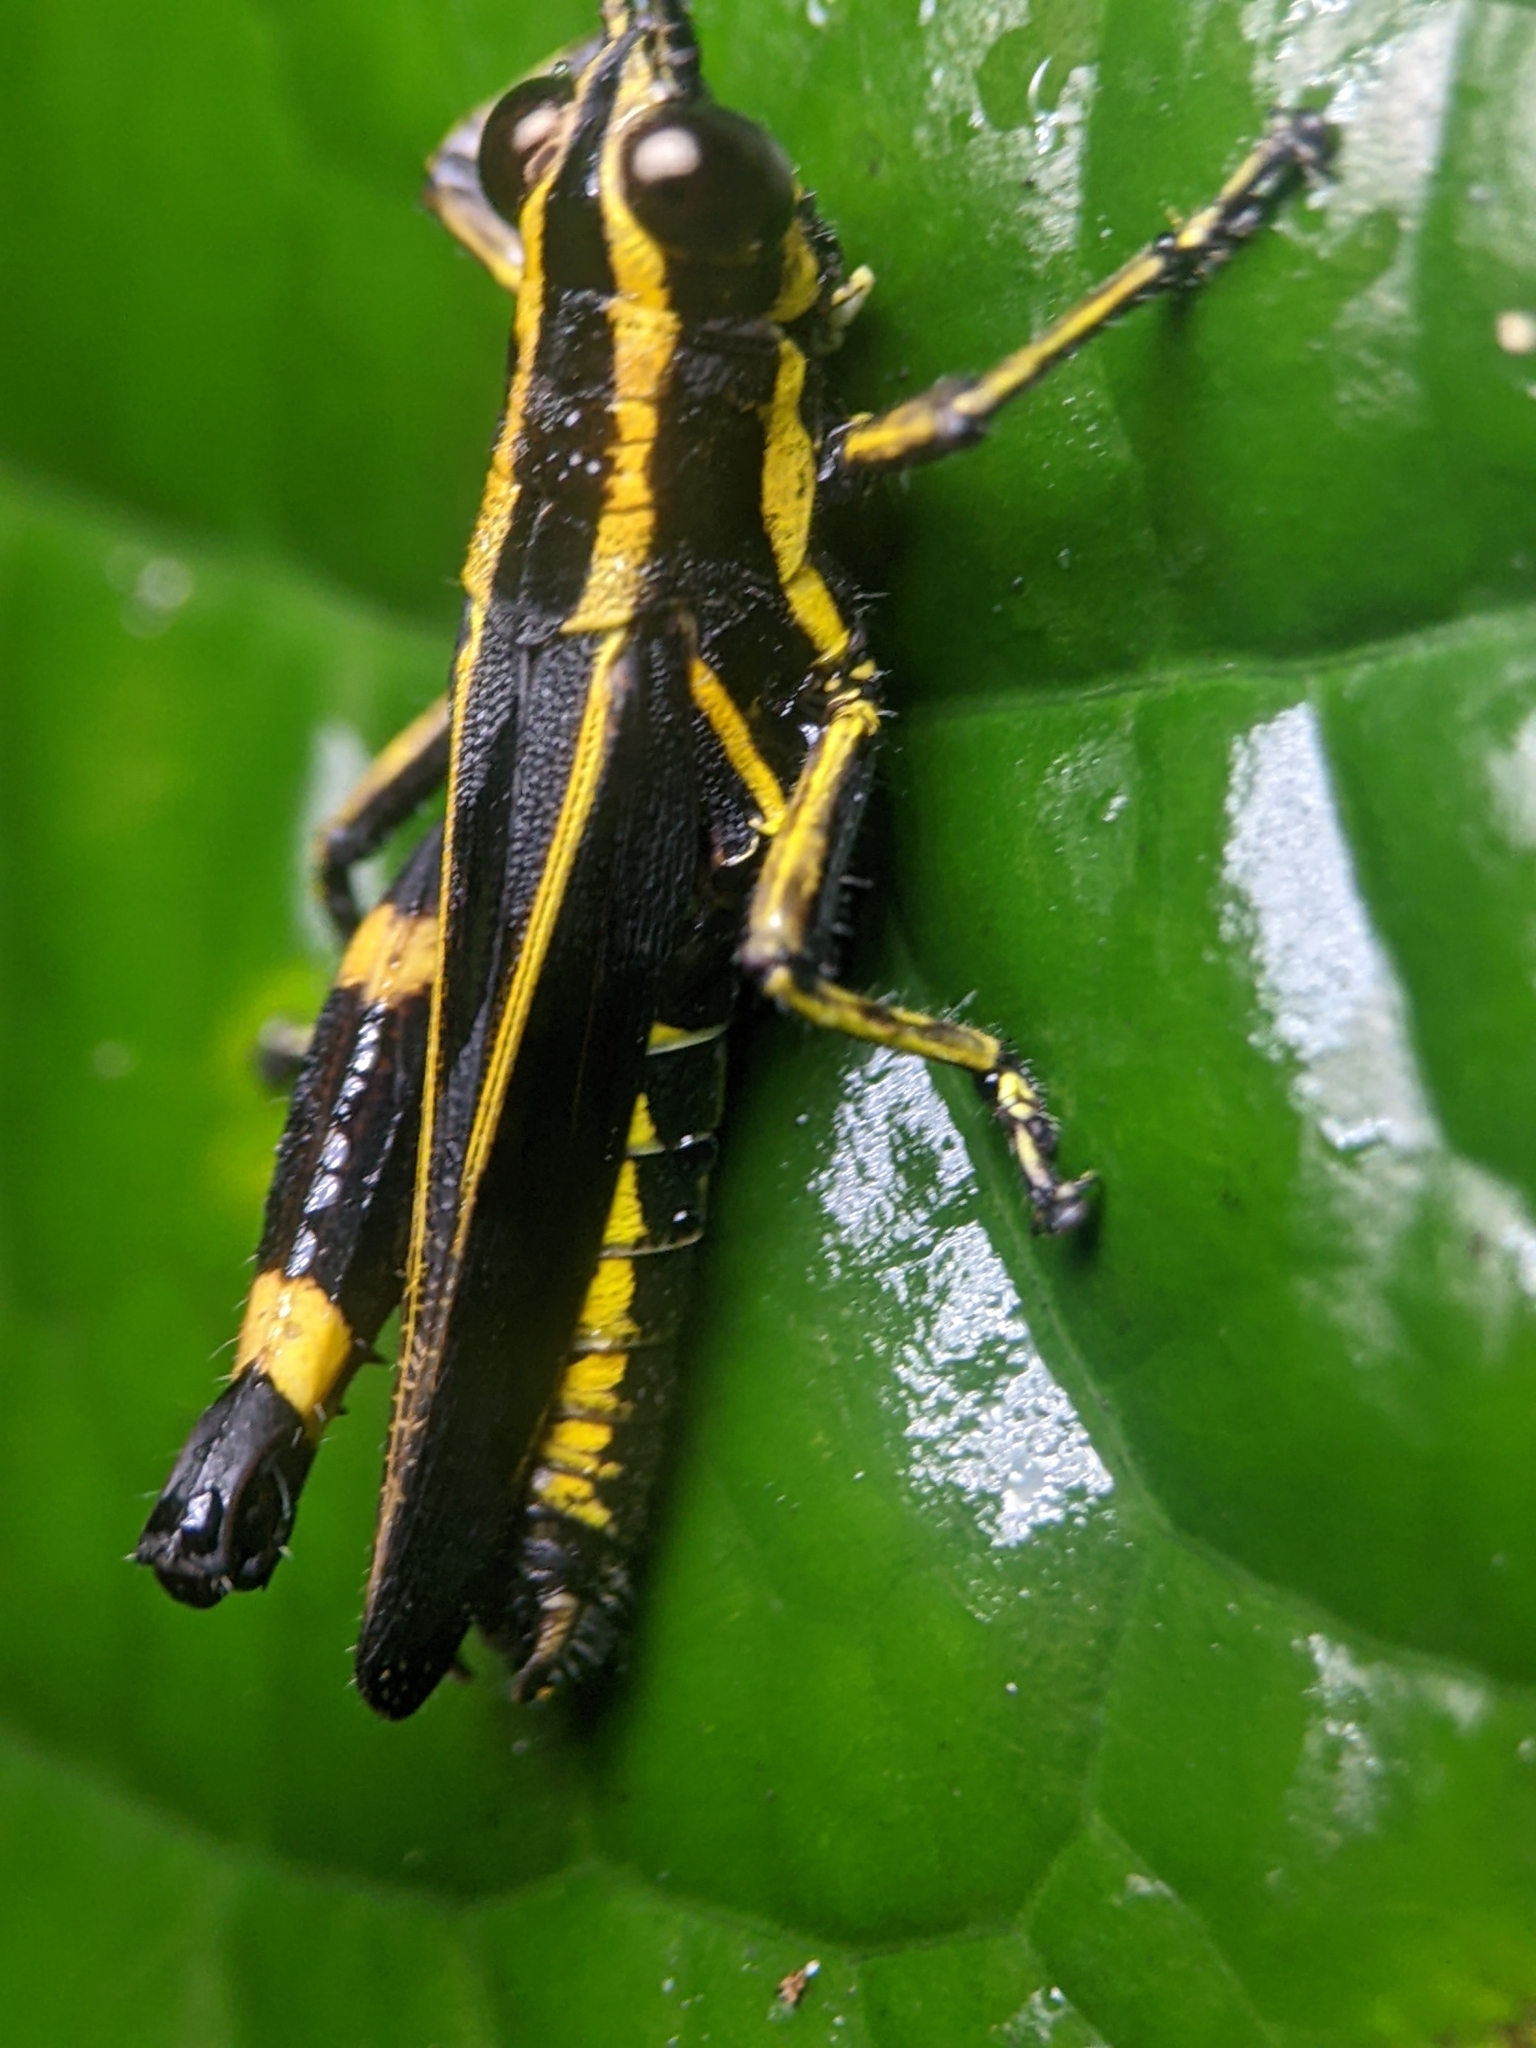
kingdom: Animalia
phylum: Arthropoda
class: Insecta
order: Orthoptera
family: Acrididae
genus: Traulia
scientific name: Traulia azureipennis
